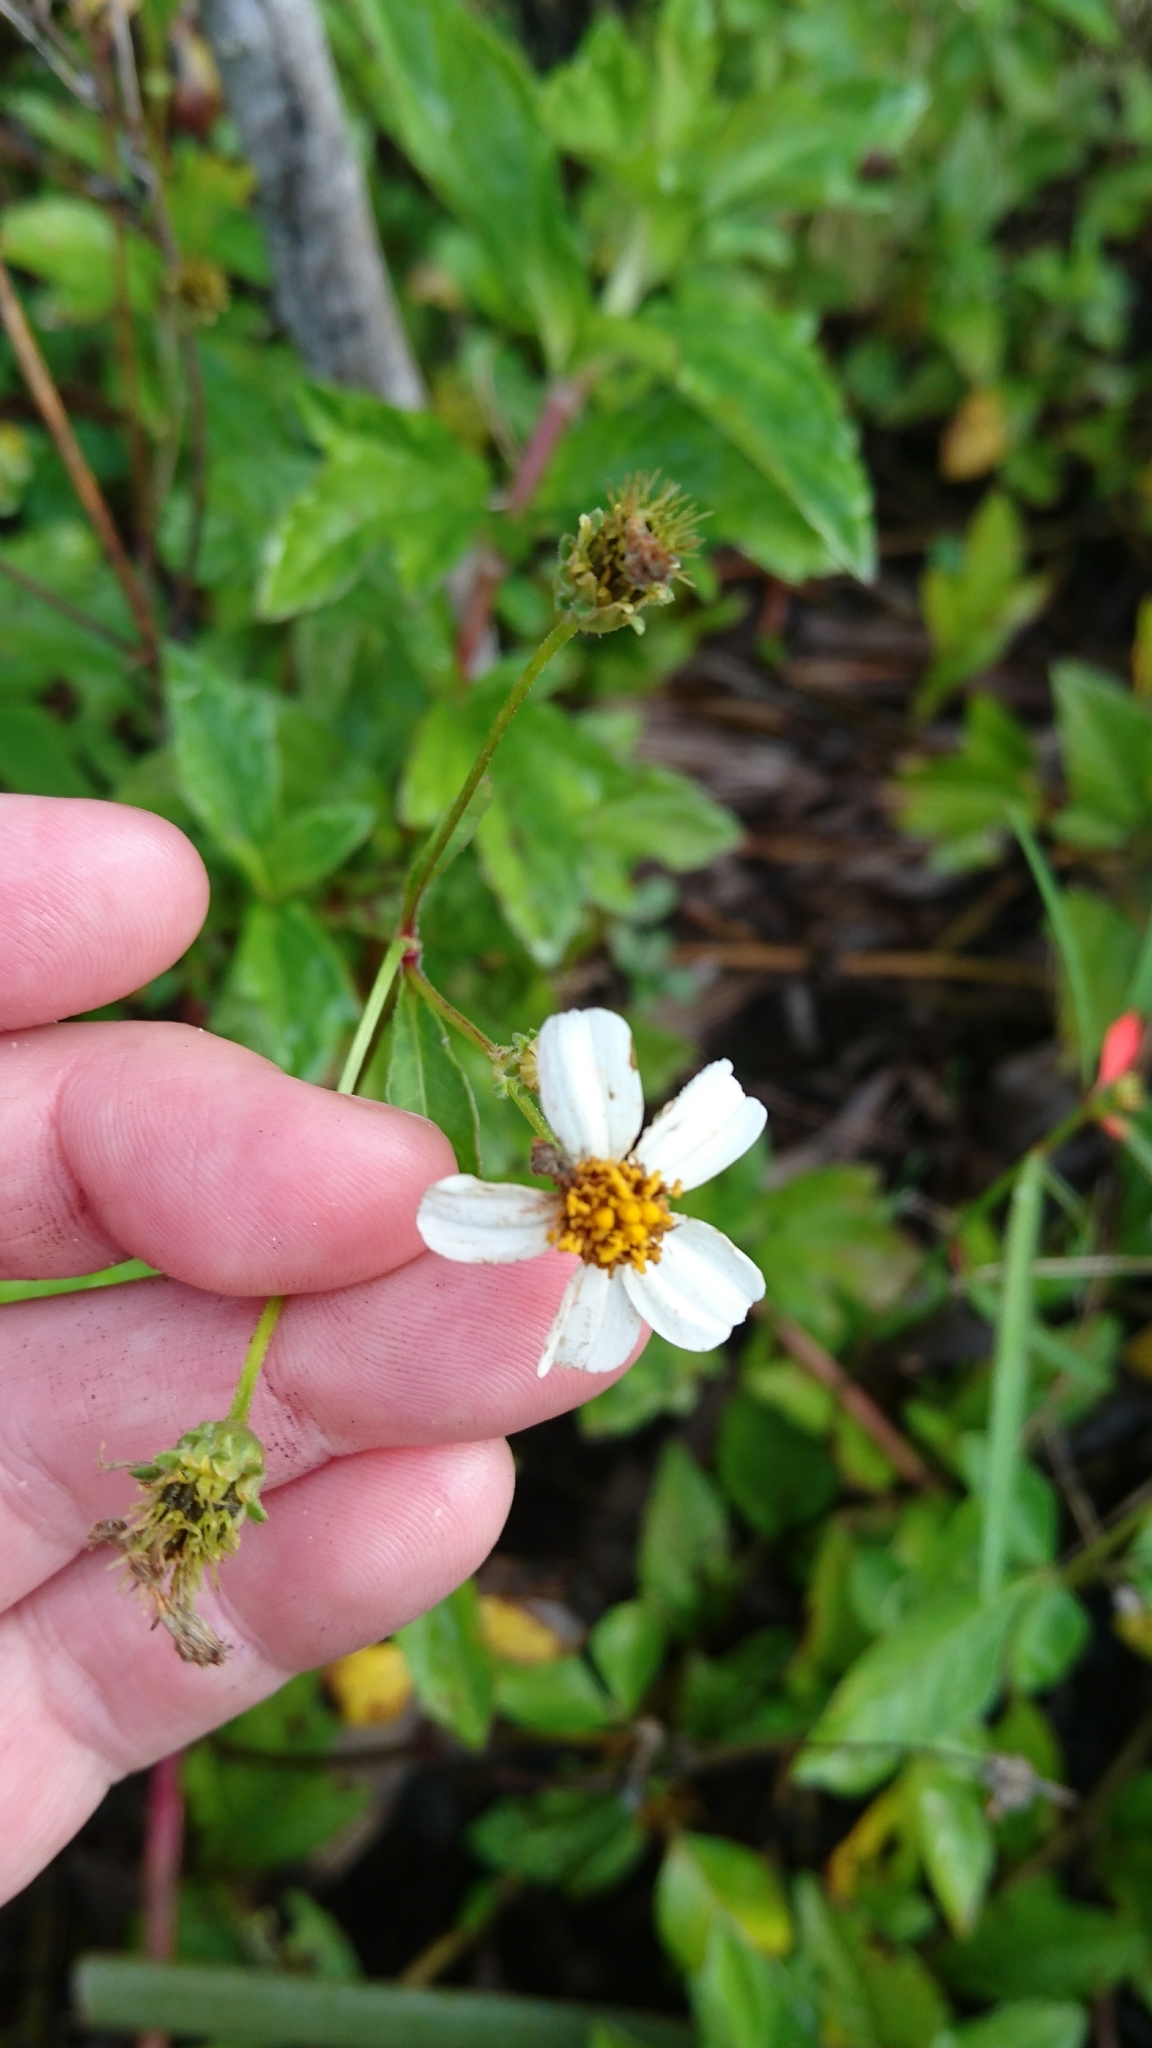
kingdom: Plantae
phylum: Tracheophyta
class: Magnoliopsida
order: Asterales
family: Asteraceae
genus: Bidens
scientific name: Bidens alba
